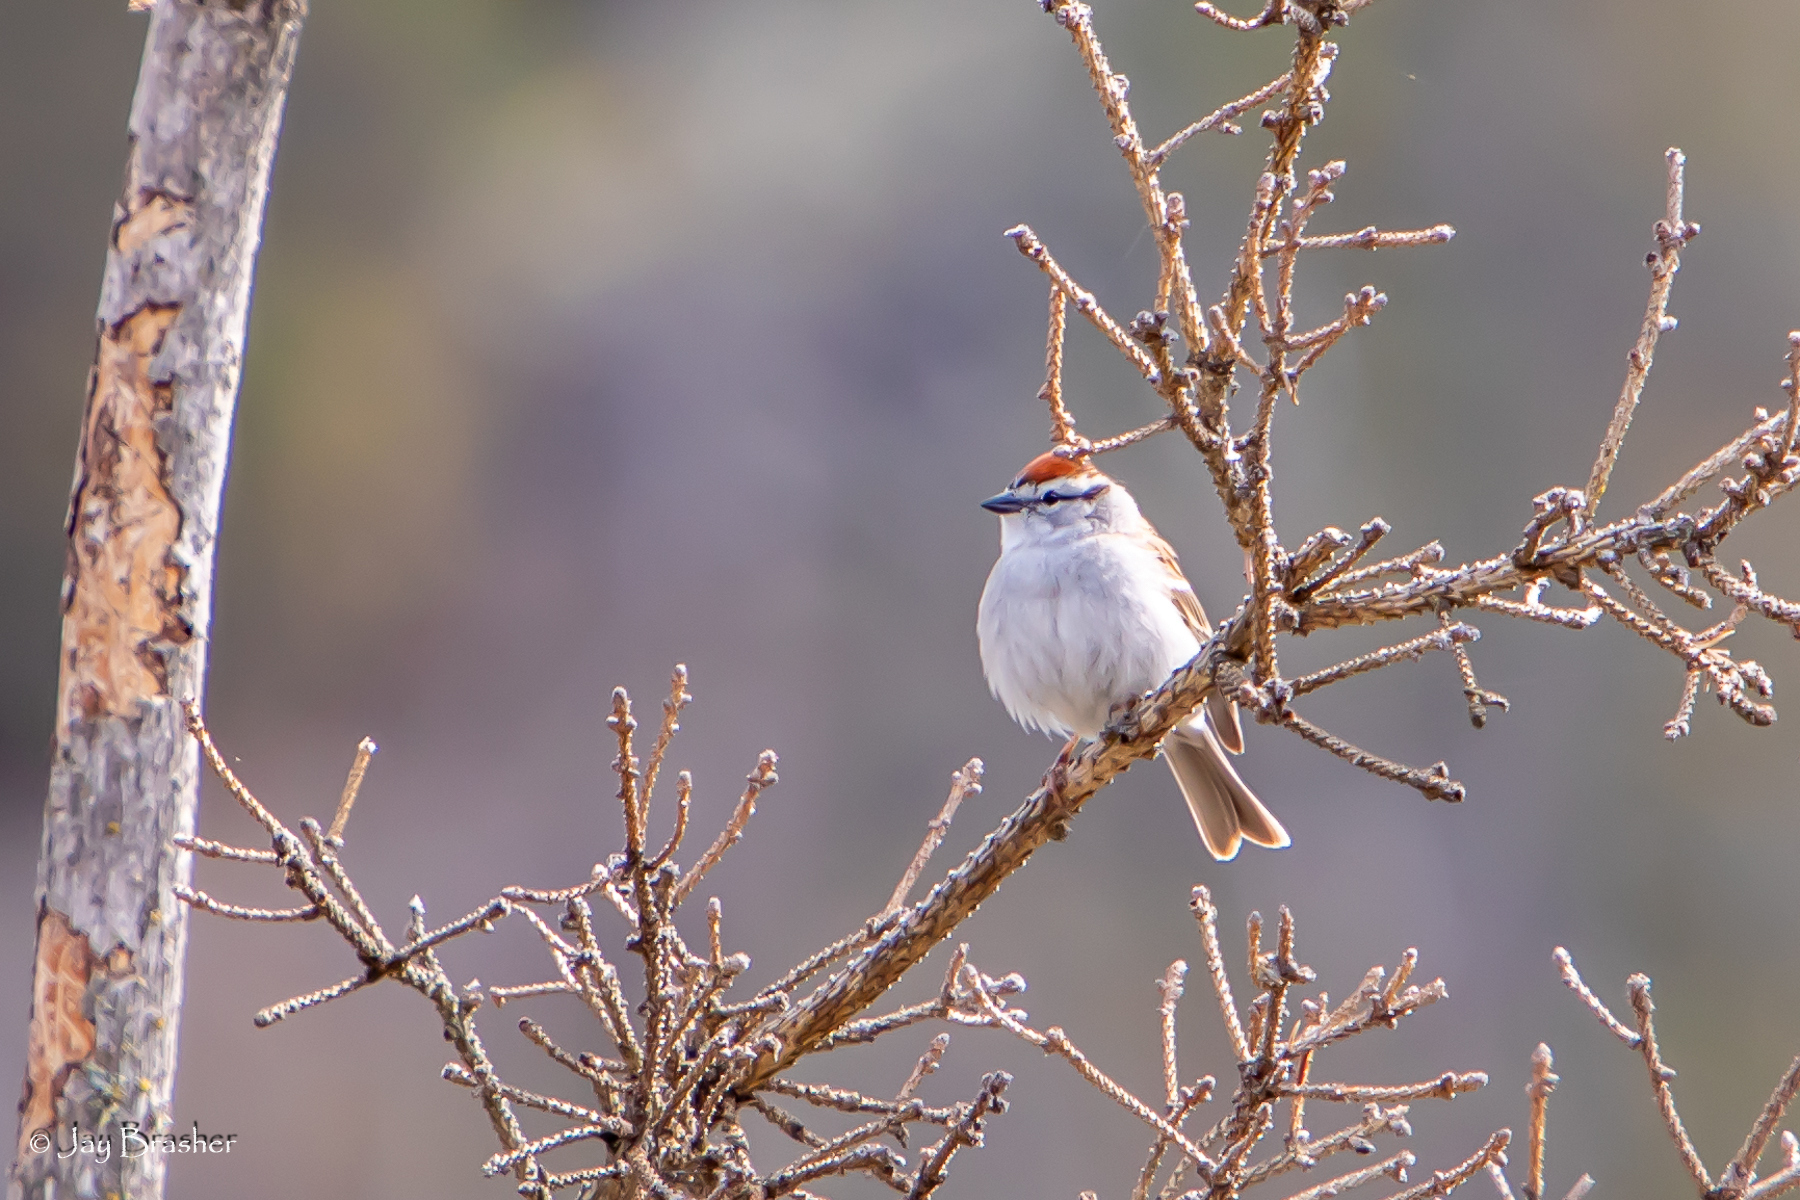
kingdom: Animalia
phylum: Chordata
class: Aves
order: Passeriformes
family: Passerellidae
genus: Spizella
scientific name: Spizella passerina
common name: Chipping sparrow
